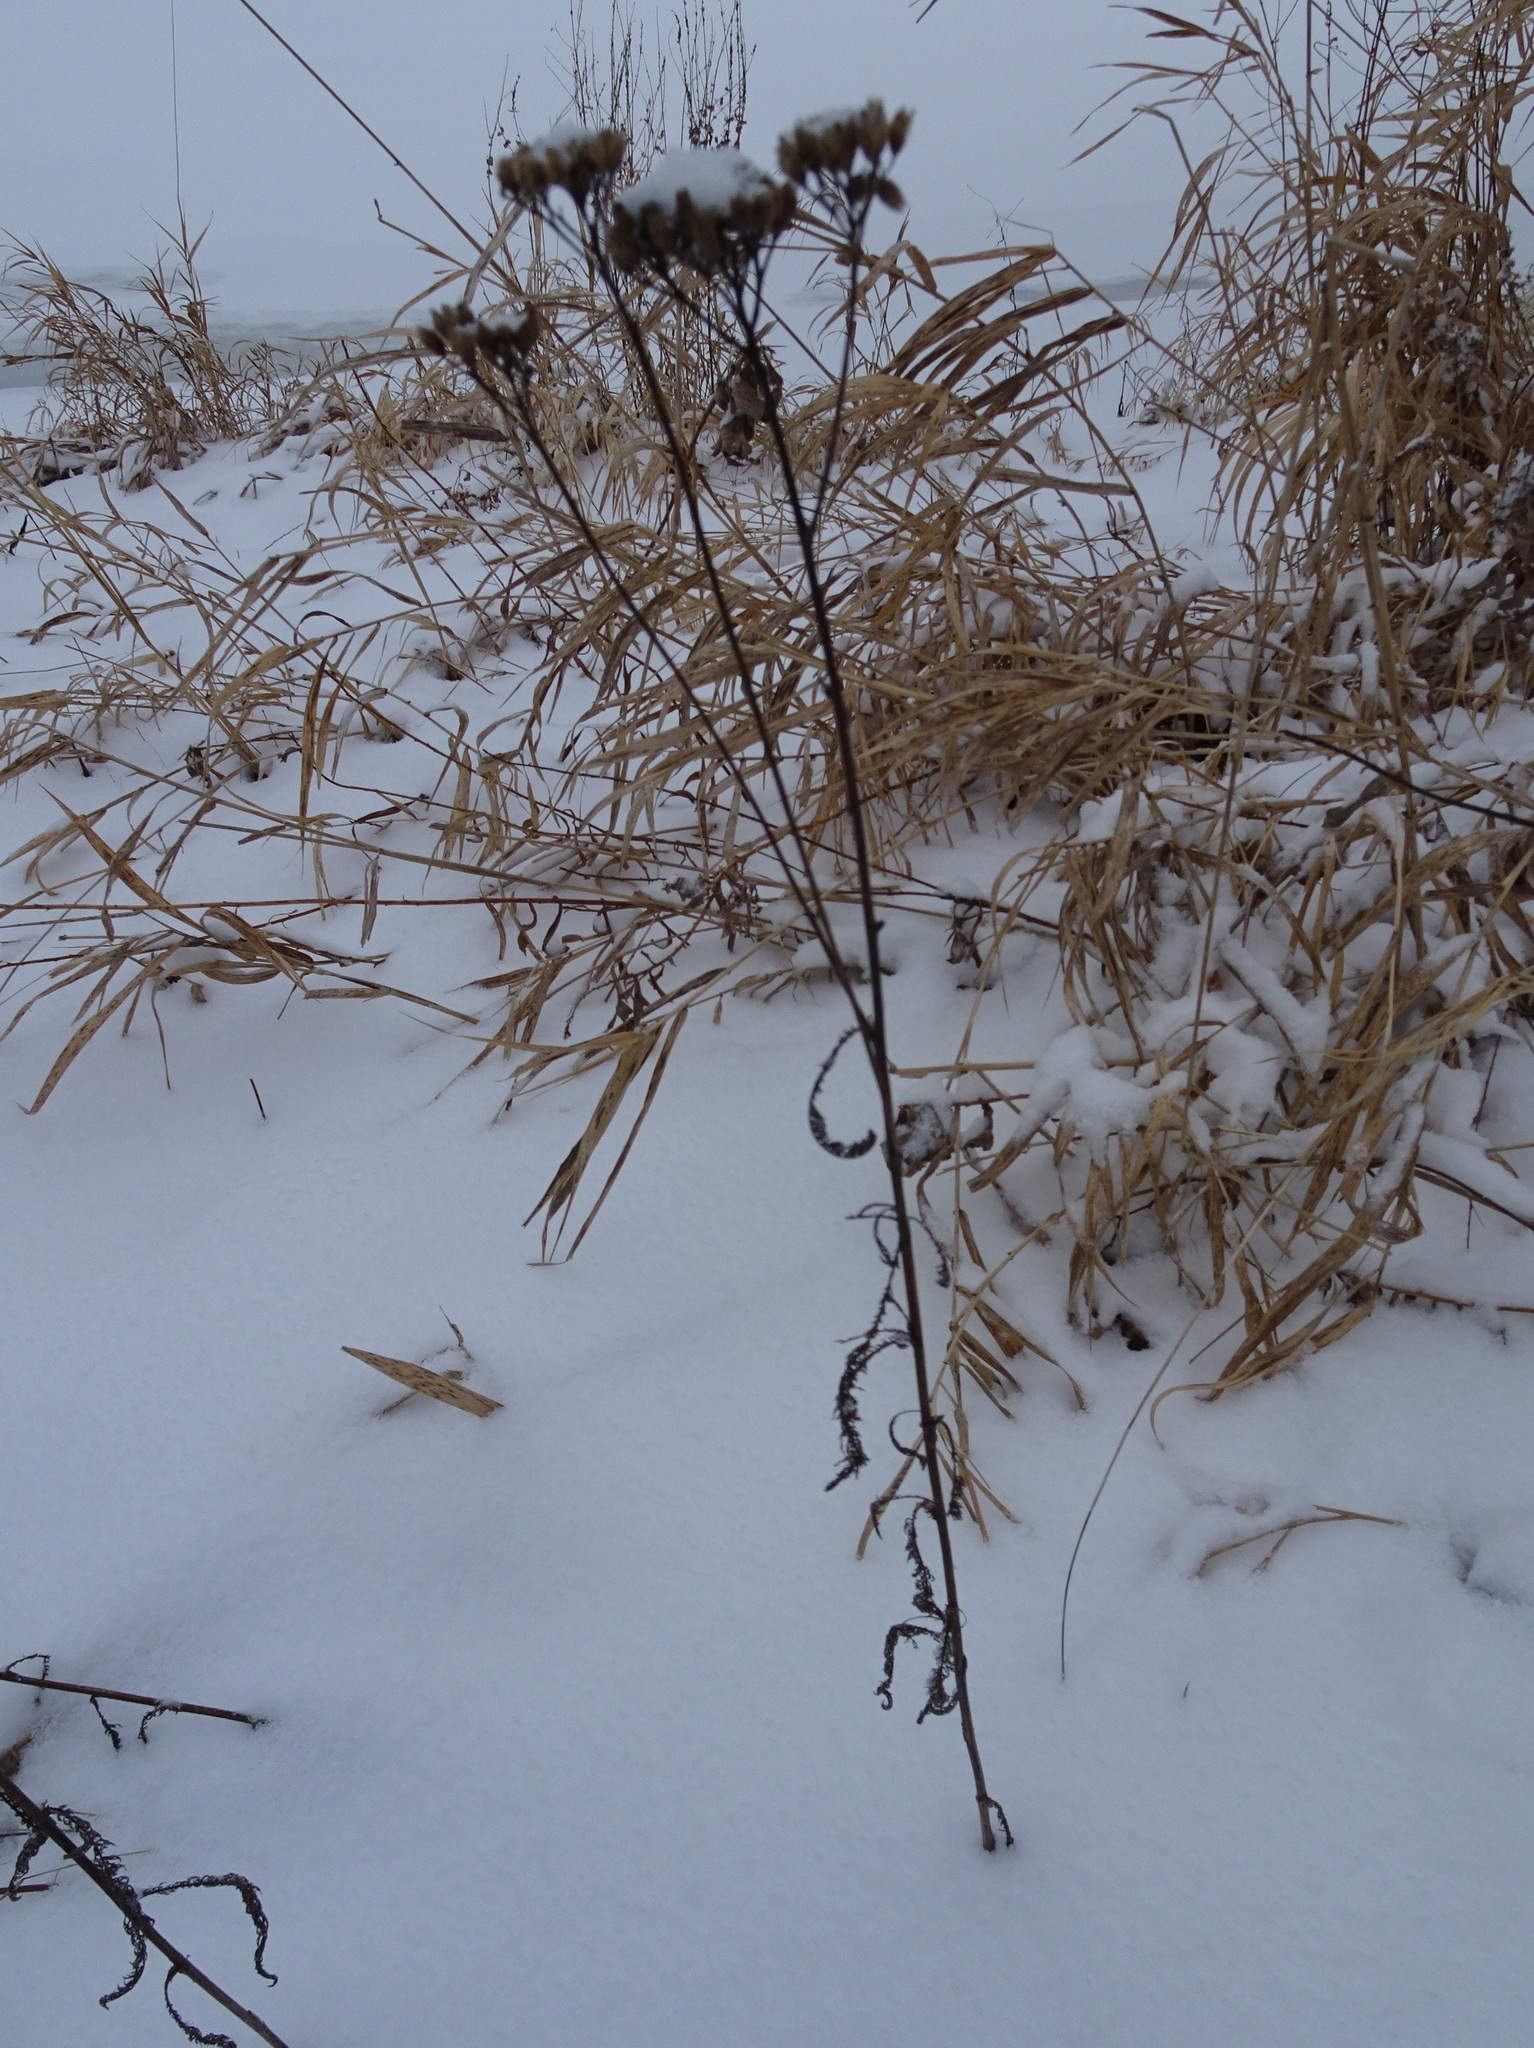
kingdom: Plantae
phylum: Tracheophyta
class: Magnoliopsida
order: Asterales
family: Asteraceae
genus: Achillea
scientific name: Achillea millefolium
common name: Yarrow
